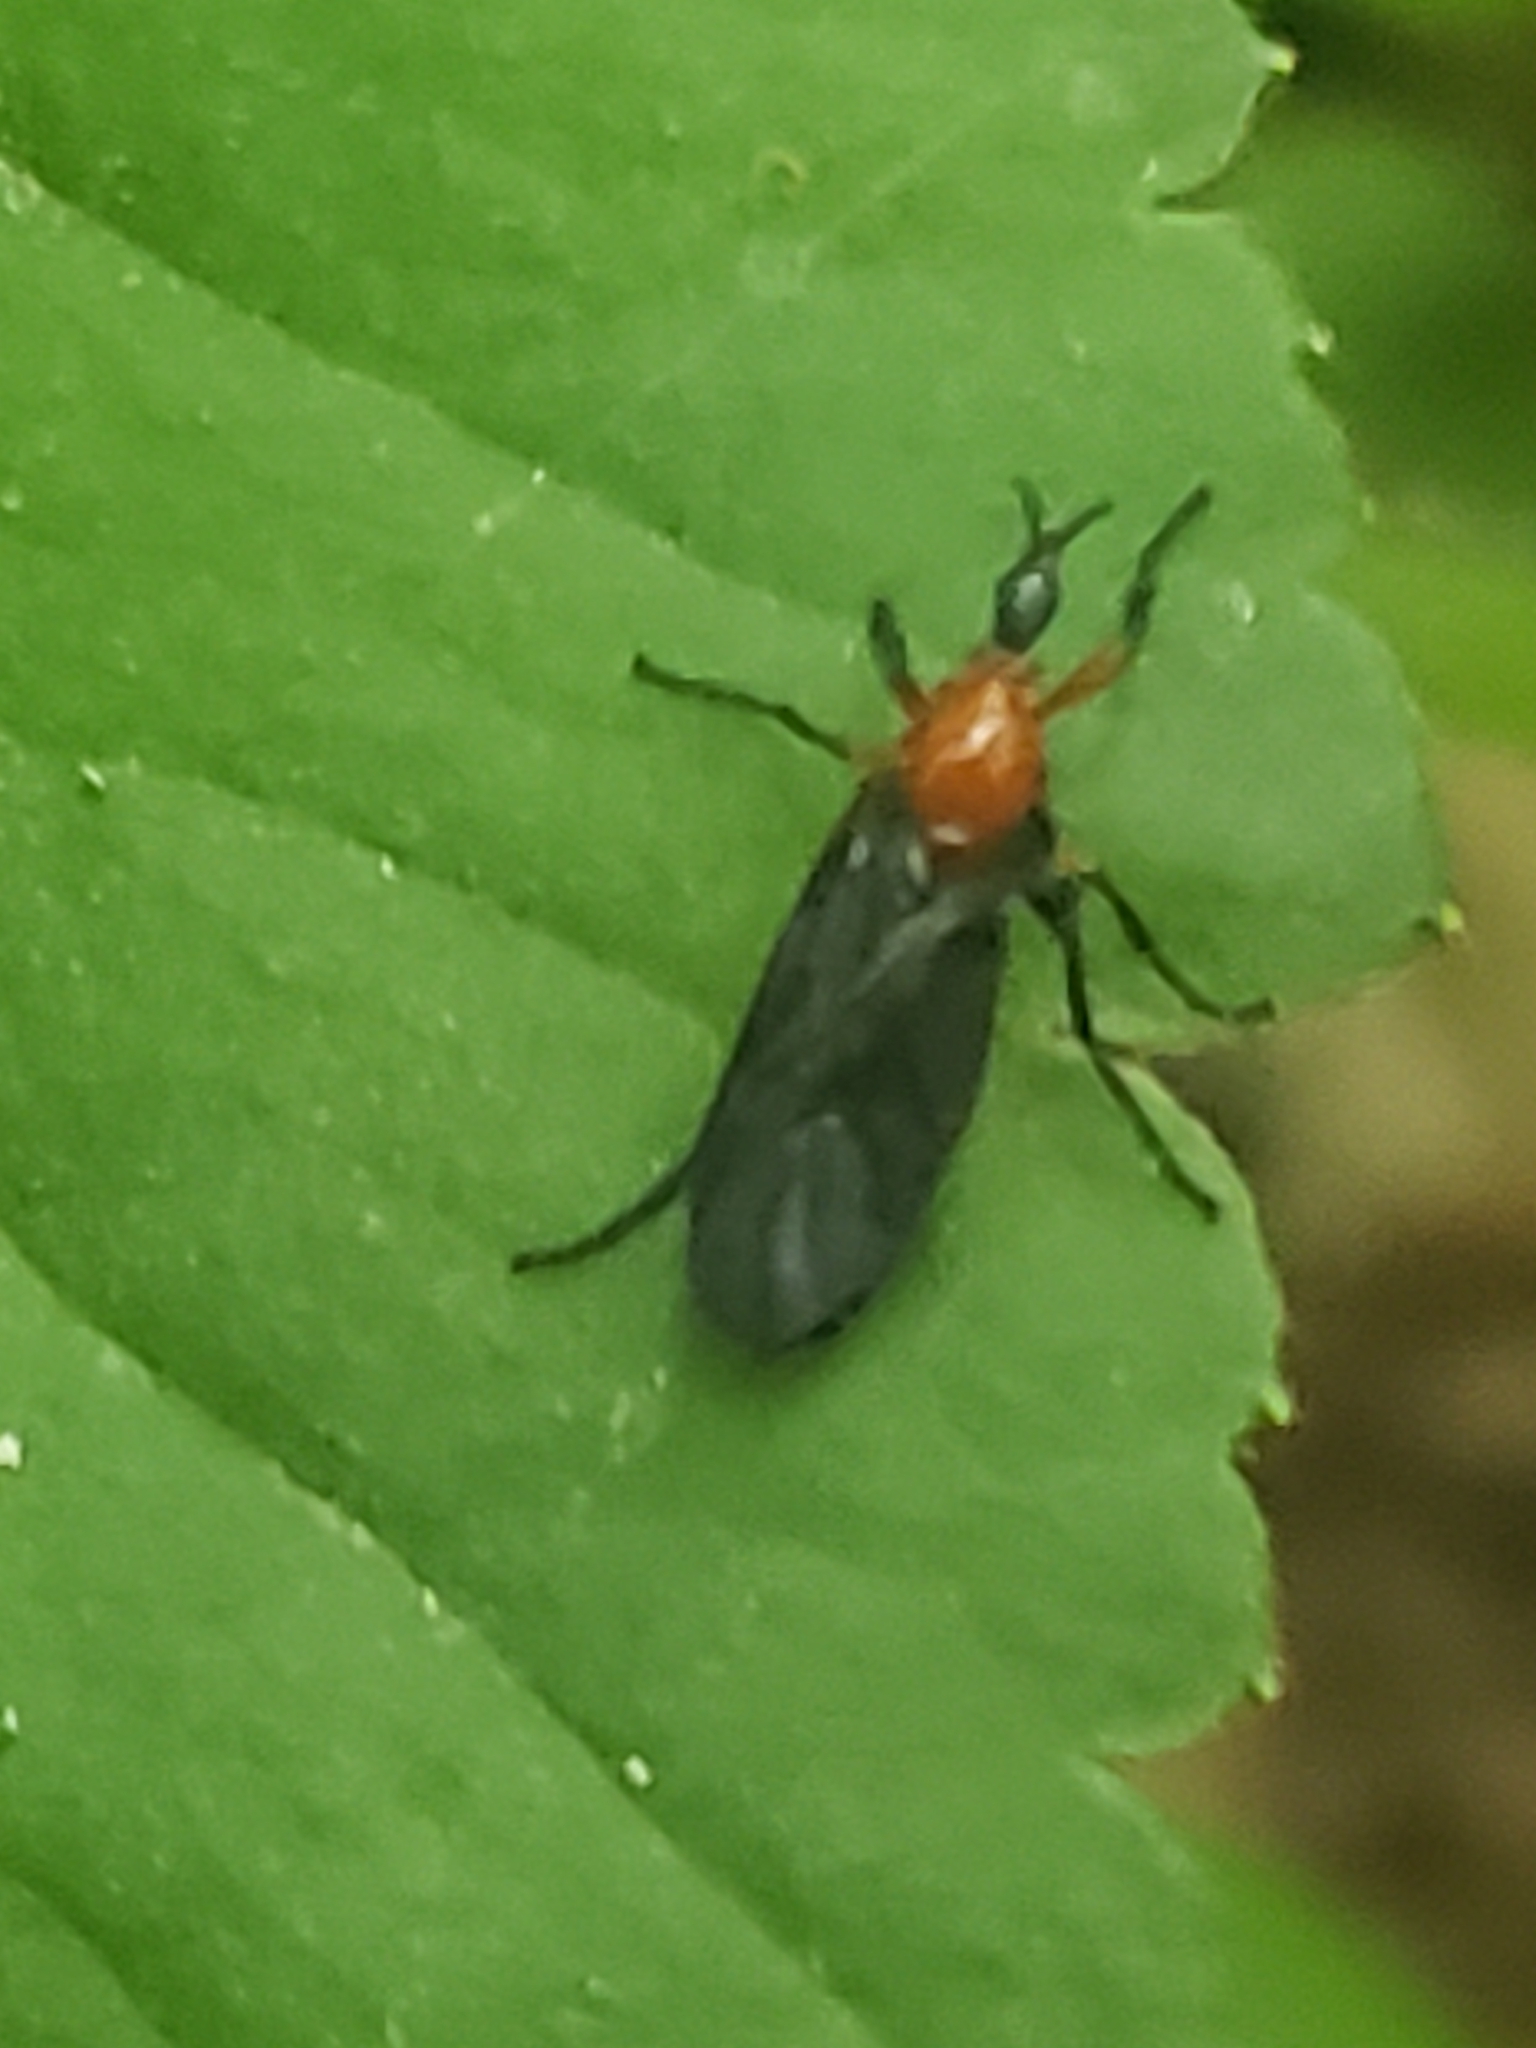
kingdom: Animalia
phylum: Arthropoda
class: Insecta
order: Diptera
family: Bibionidae
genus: Dilophus
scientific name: Dilophus spinipes
